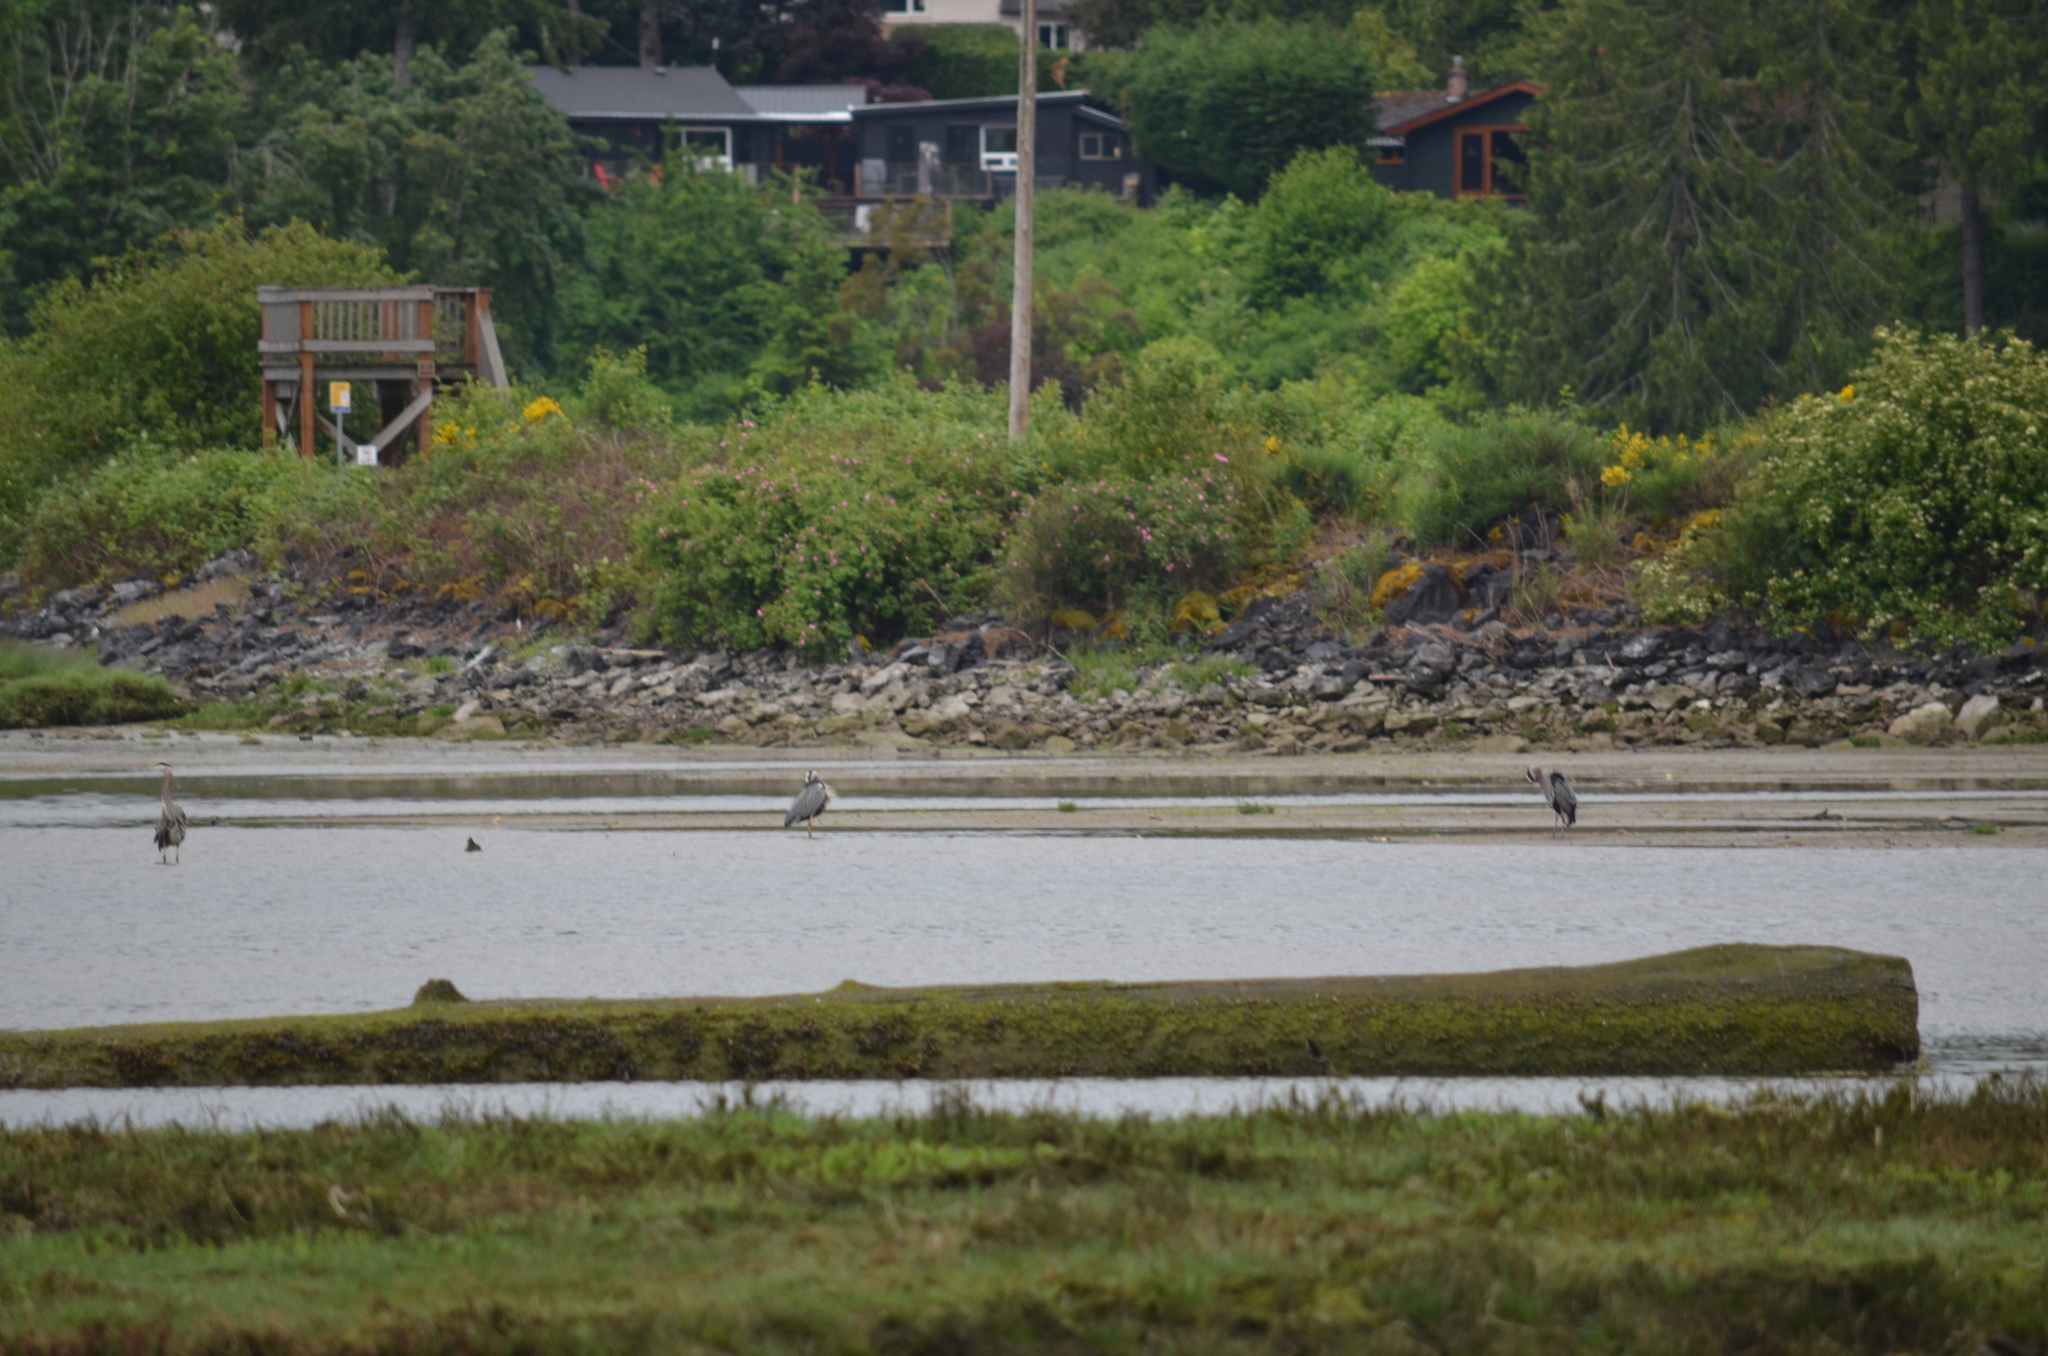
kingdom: Animalia
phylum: Chordata
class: Aves
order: Pelecaniformes
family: Ardeidae
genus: Ardea
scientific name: Ardea herodias
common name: Great blue heron
